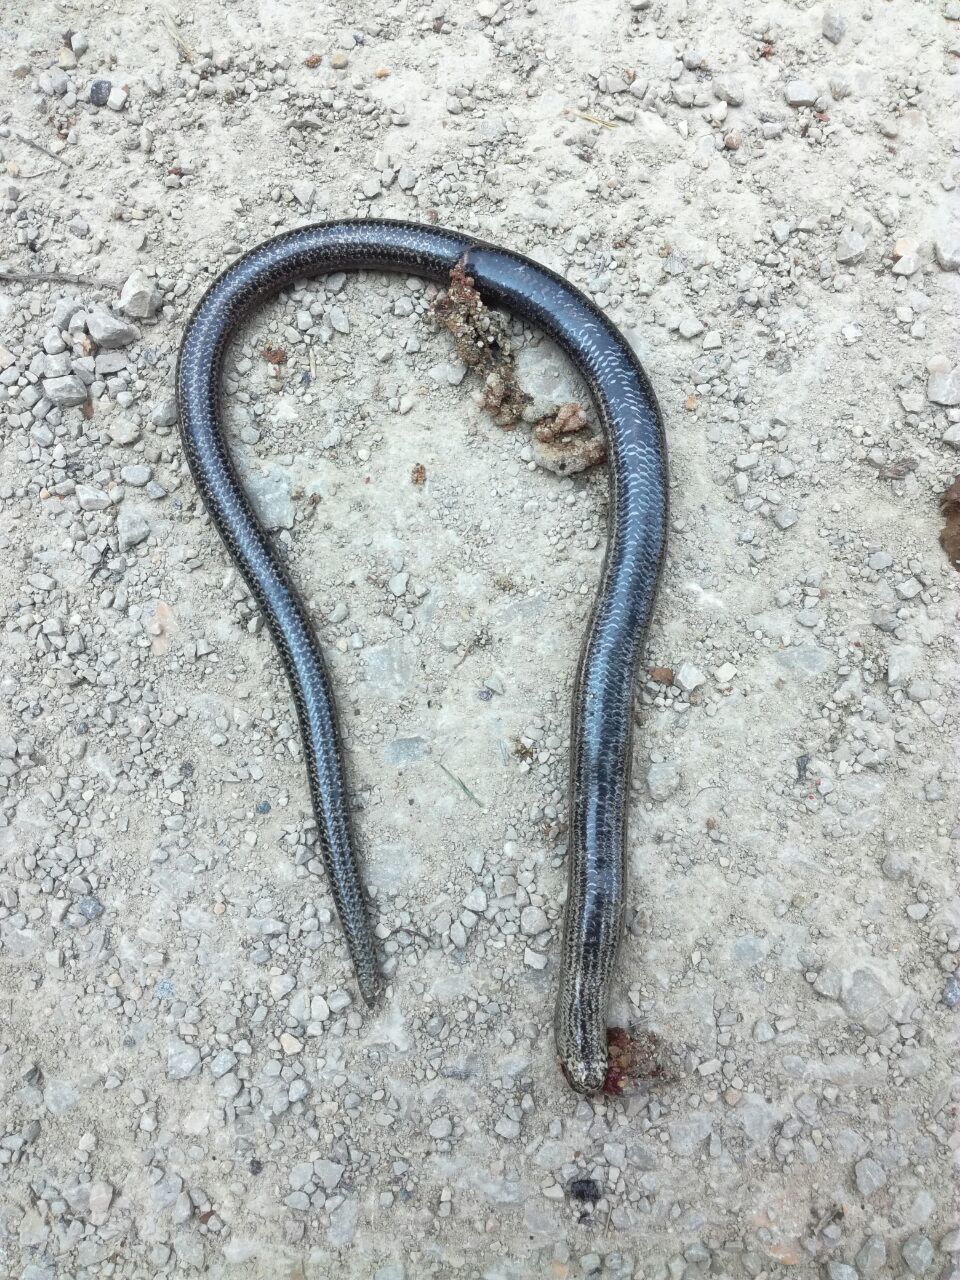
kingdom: Animalia
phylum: Chordata
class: Squamata
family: Anguidae
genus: Anguis
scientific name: Anguis fragilis
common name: Slow worm
